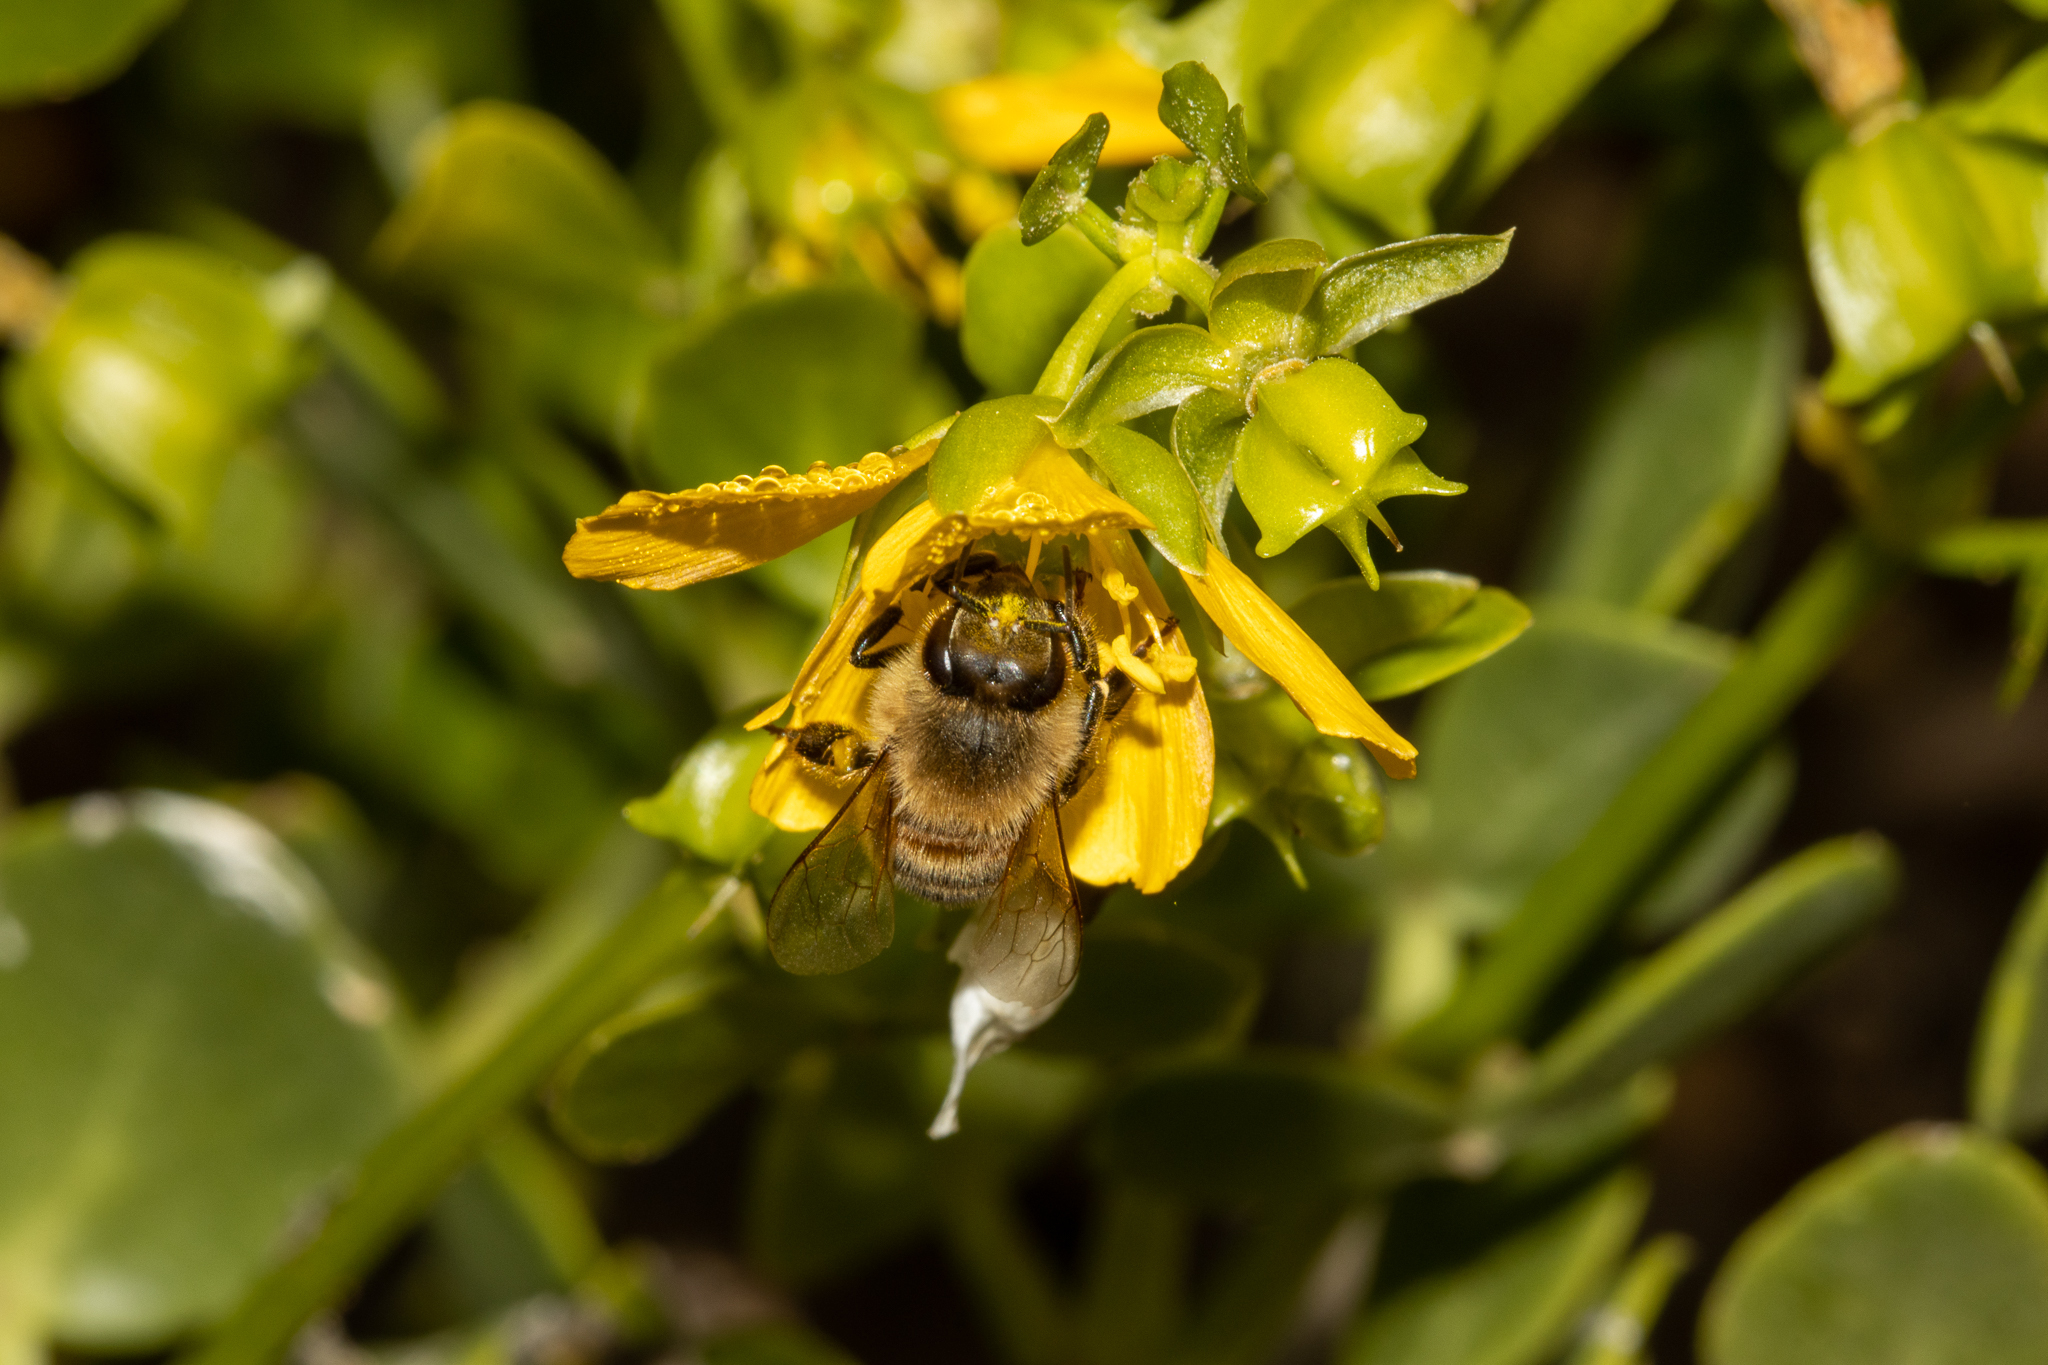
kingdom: Animalia
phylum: Arthropoda
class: Insecta
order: Hymenoptera
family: Apidae
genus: Apis
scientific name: Apis mellifera
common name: Honey bee
